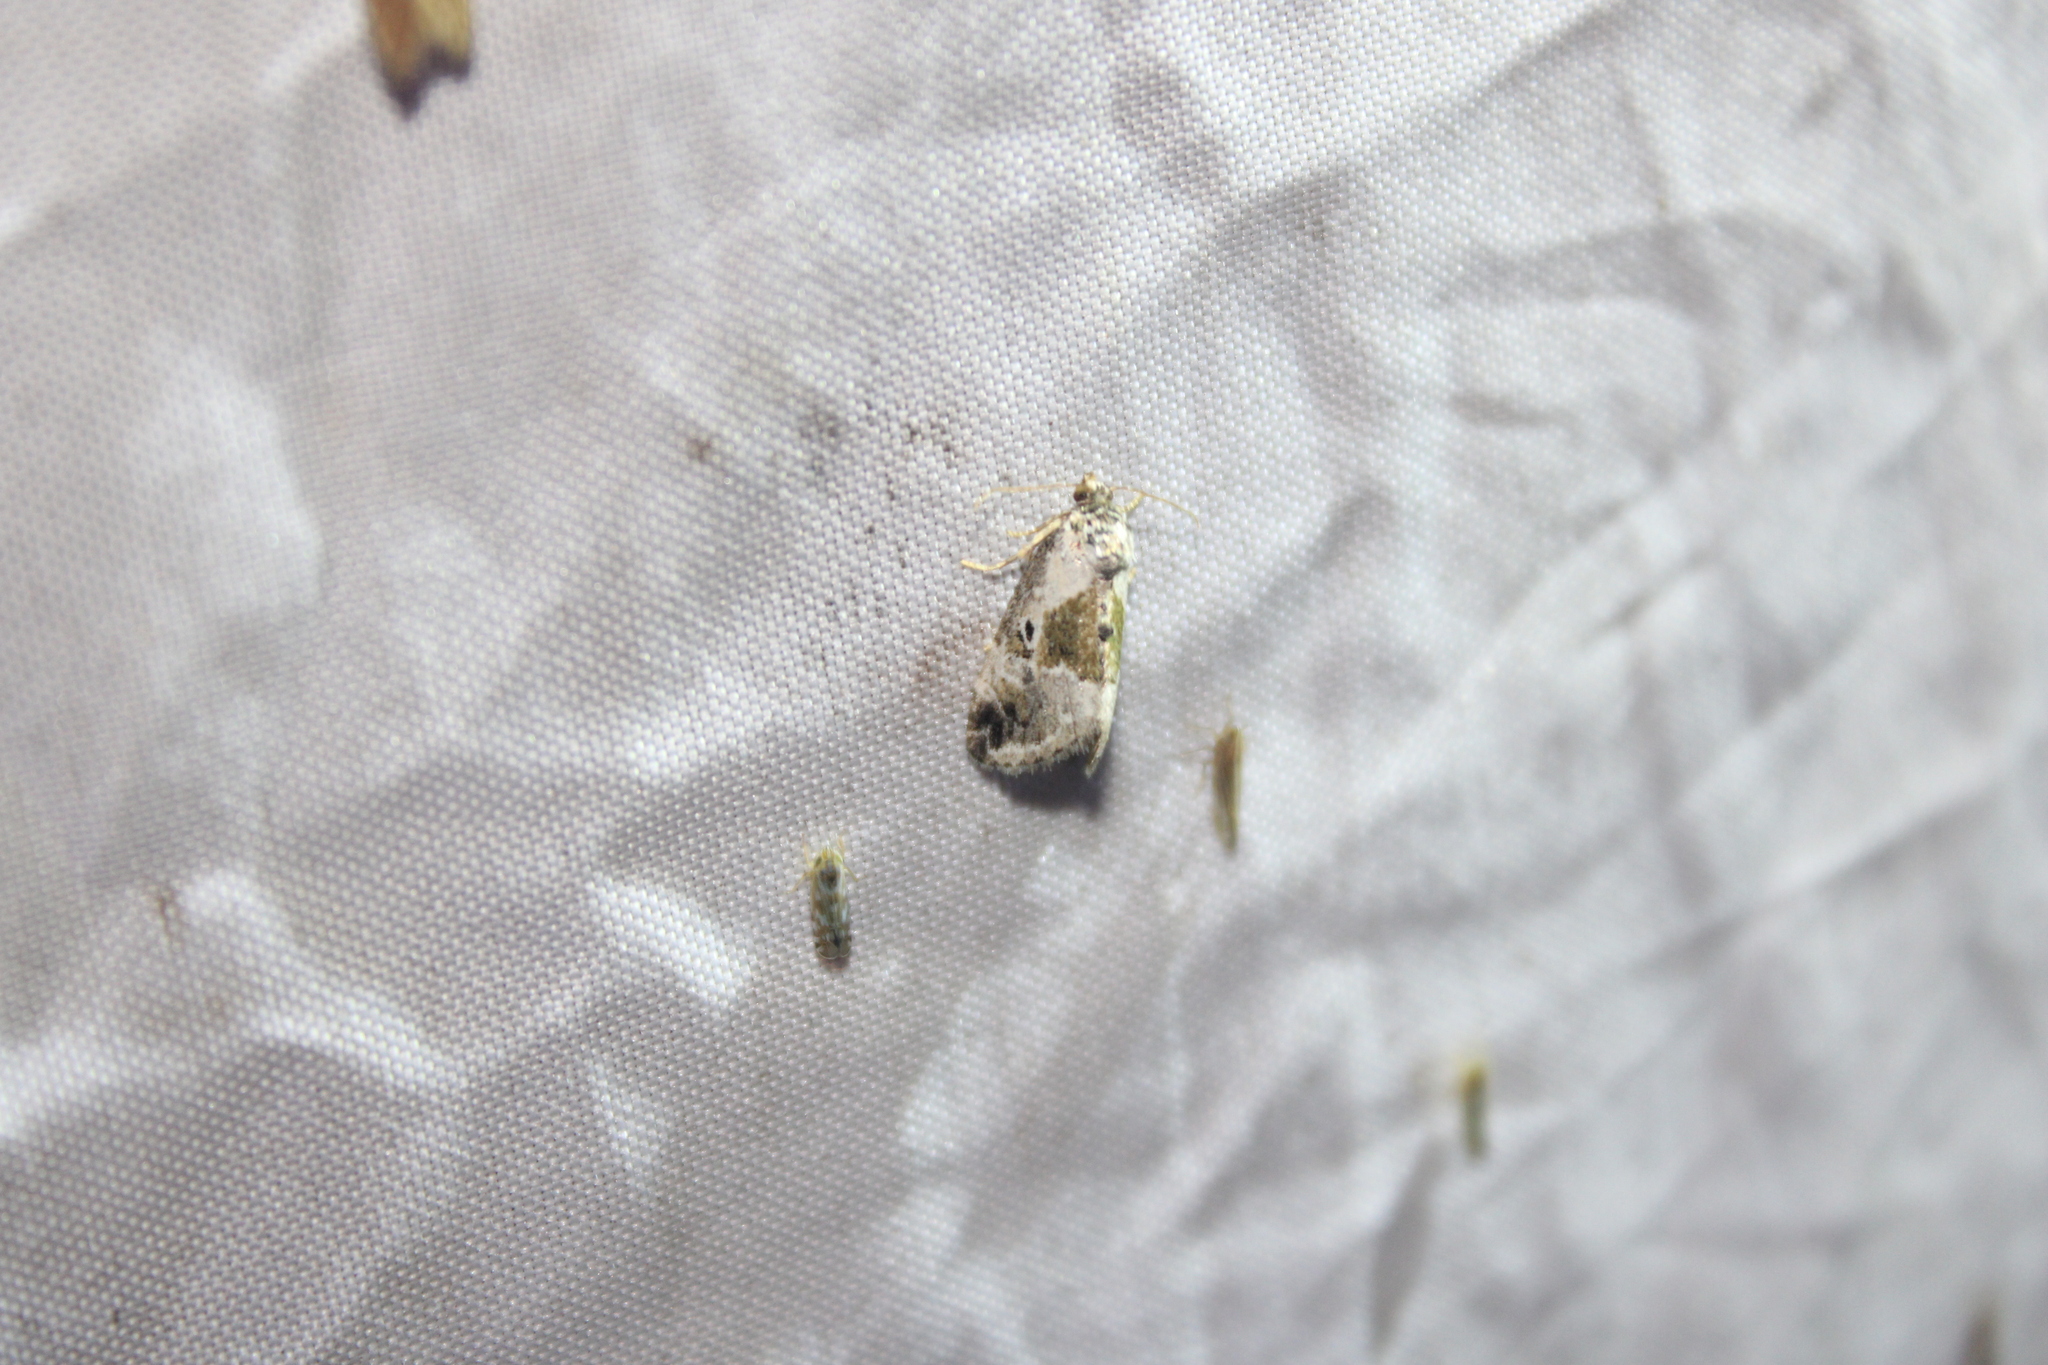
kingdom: Animalia
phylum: Arthropoda
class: Insecta
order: Lepidoptera
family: Noctuidae
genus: Maliattha
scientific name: Maliattha synochitis
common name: Black-dotted glyph
